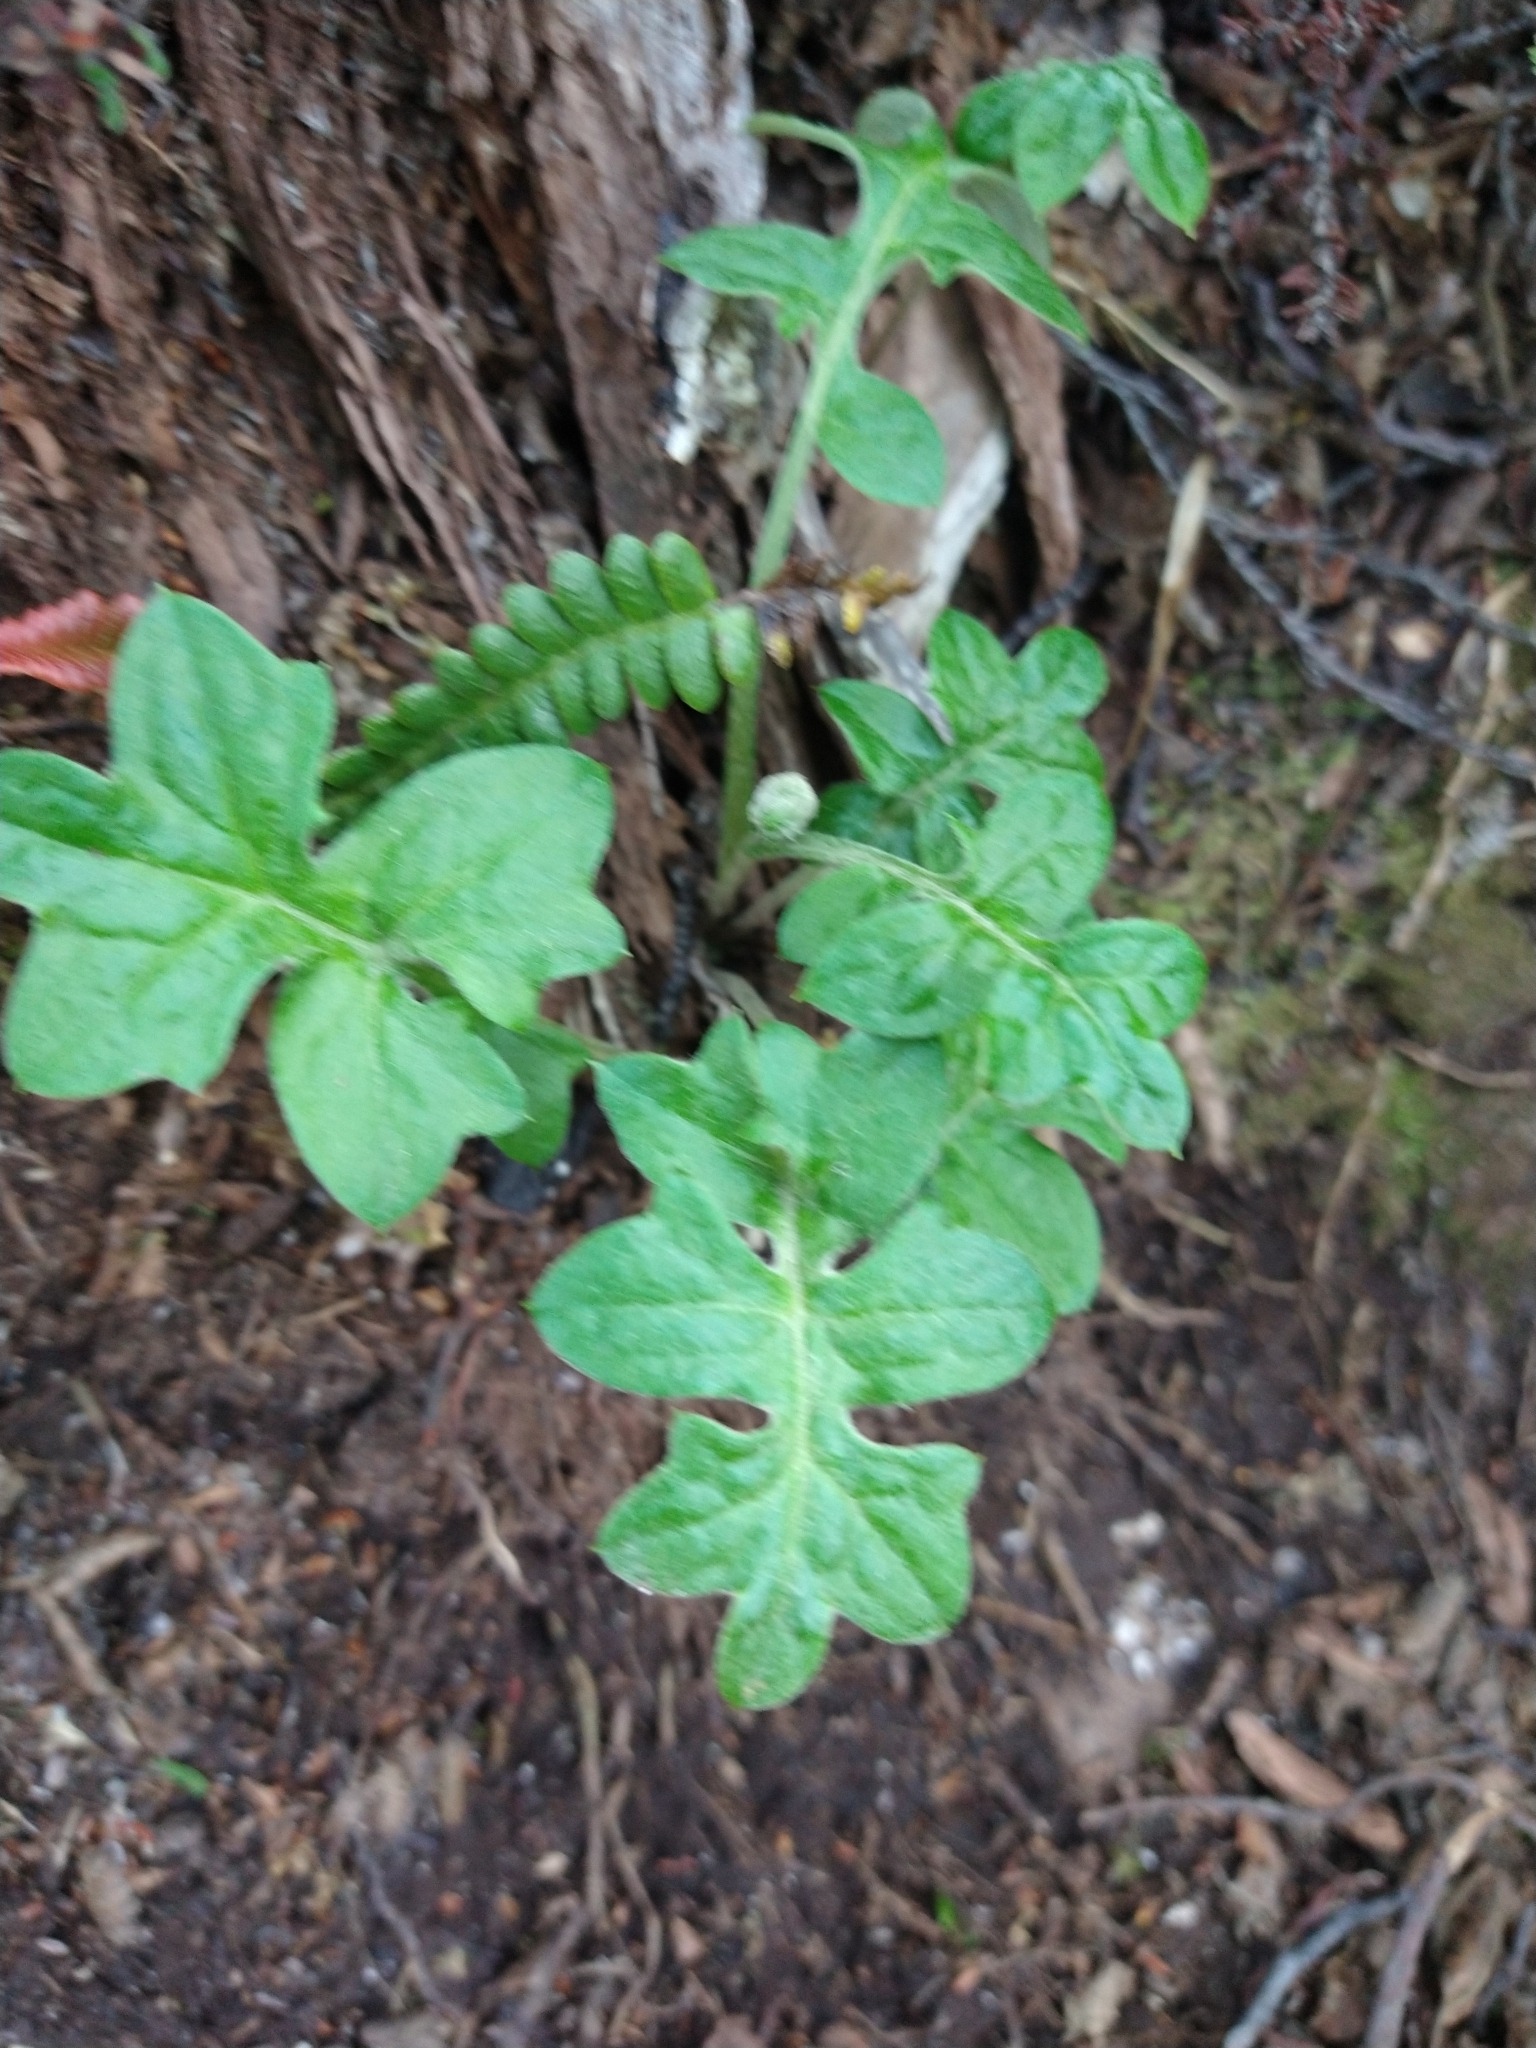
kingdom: Plantae
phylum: Tracheophyta
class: Magnoliopsida
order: Asterales
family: Asteraceae
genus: Macrachaenium
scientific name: Macrachaenium gracile
